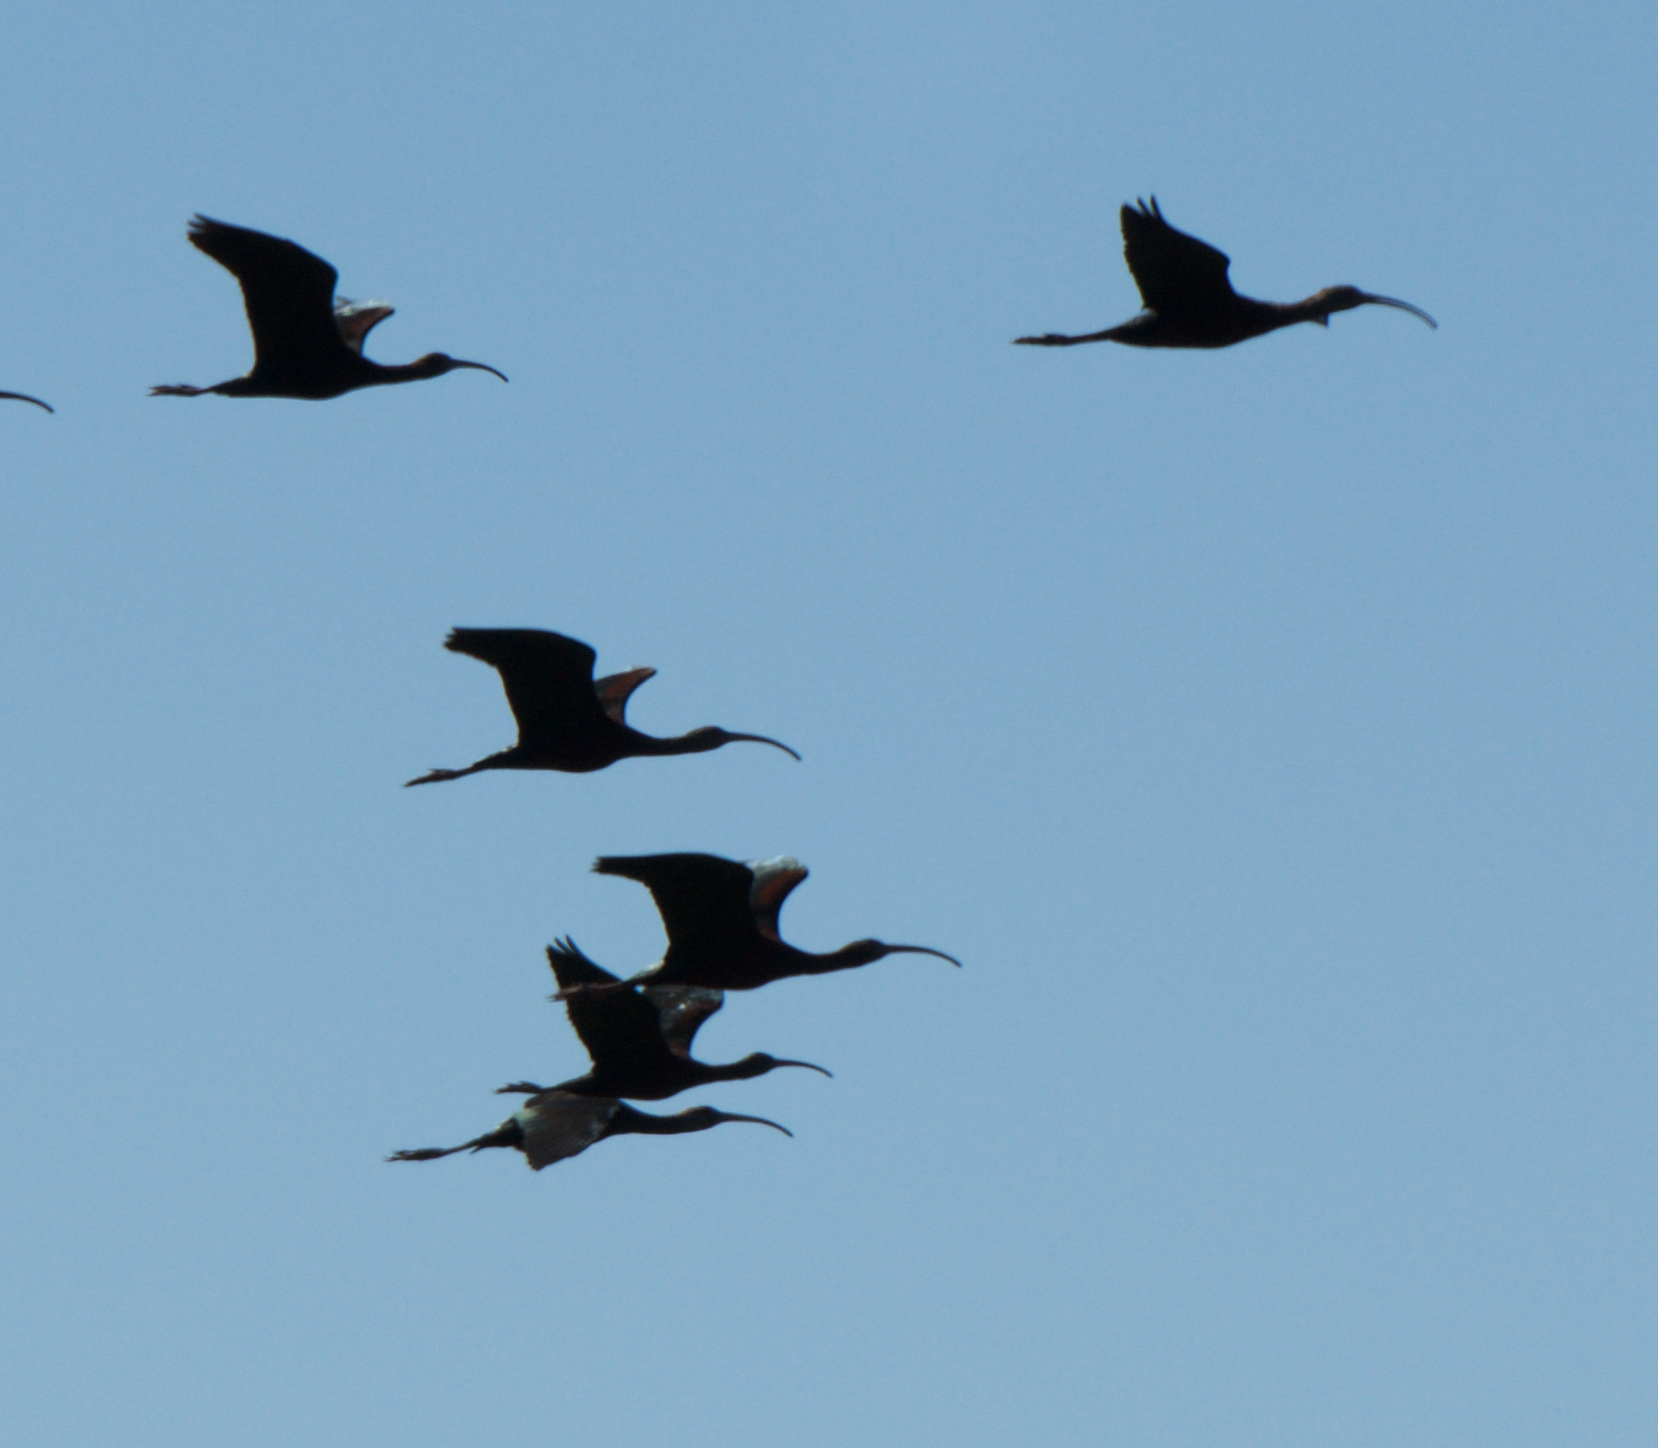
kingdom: Animalia
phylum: Chordata
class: Aves
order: Pelecaniformes
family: Threskiornithidae
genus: Plegadis
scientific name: Plegadis chihi
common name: White-faced ibis
